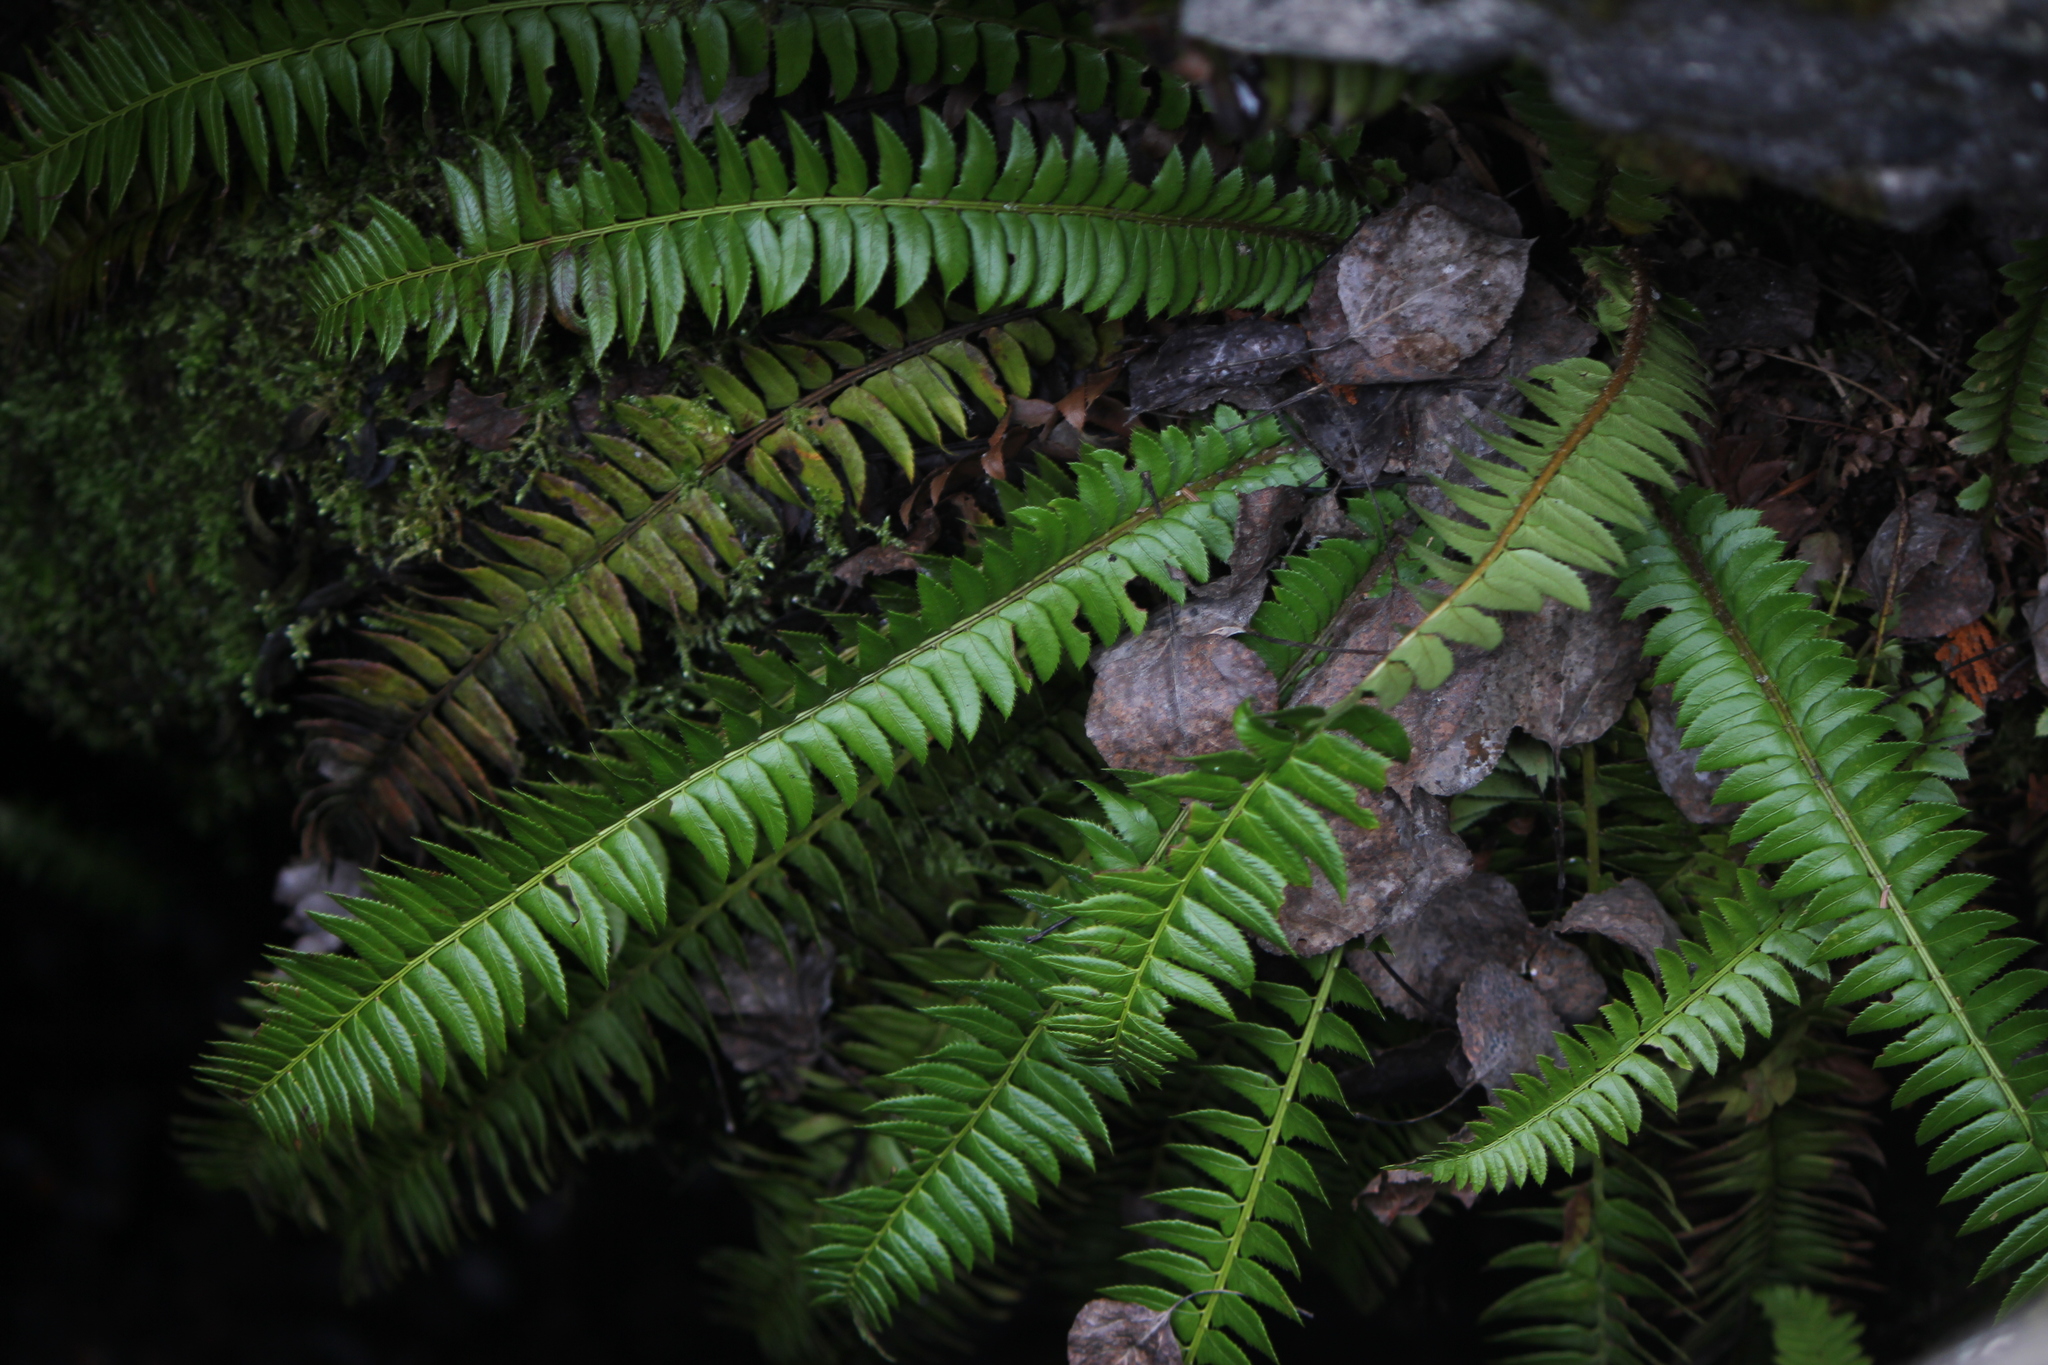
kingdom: Plantae
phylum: Tracheophyta
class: Polypodiopsida
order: Polypodiales
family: Dryopteridaceae
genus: Polystichum
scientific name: Polystichum lonchitis
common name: Holly fern
